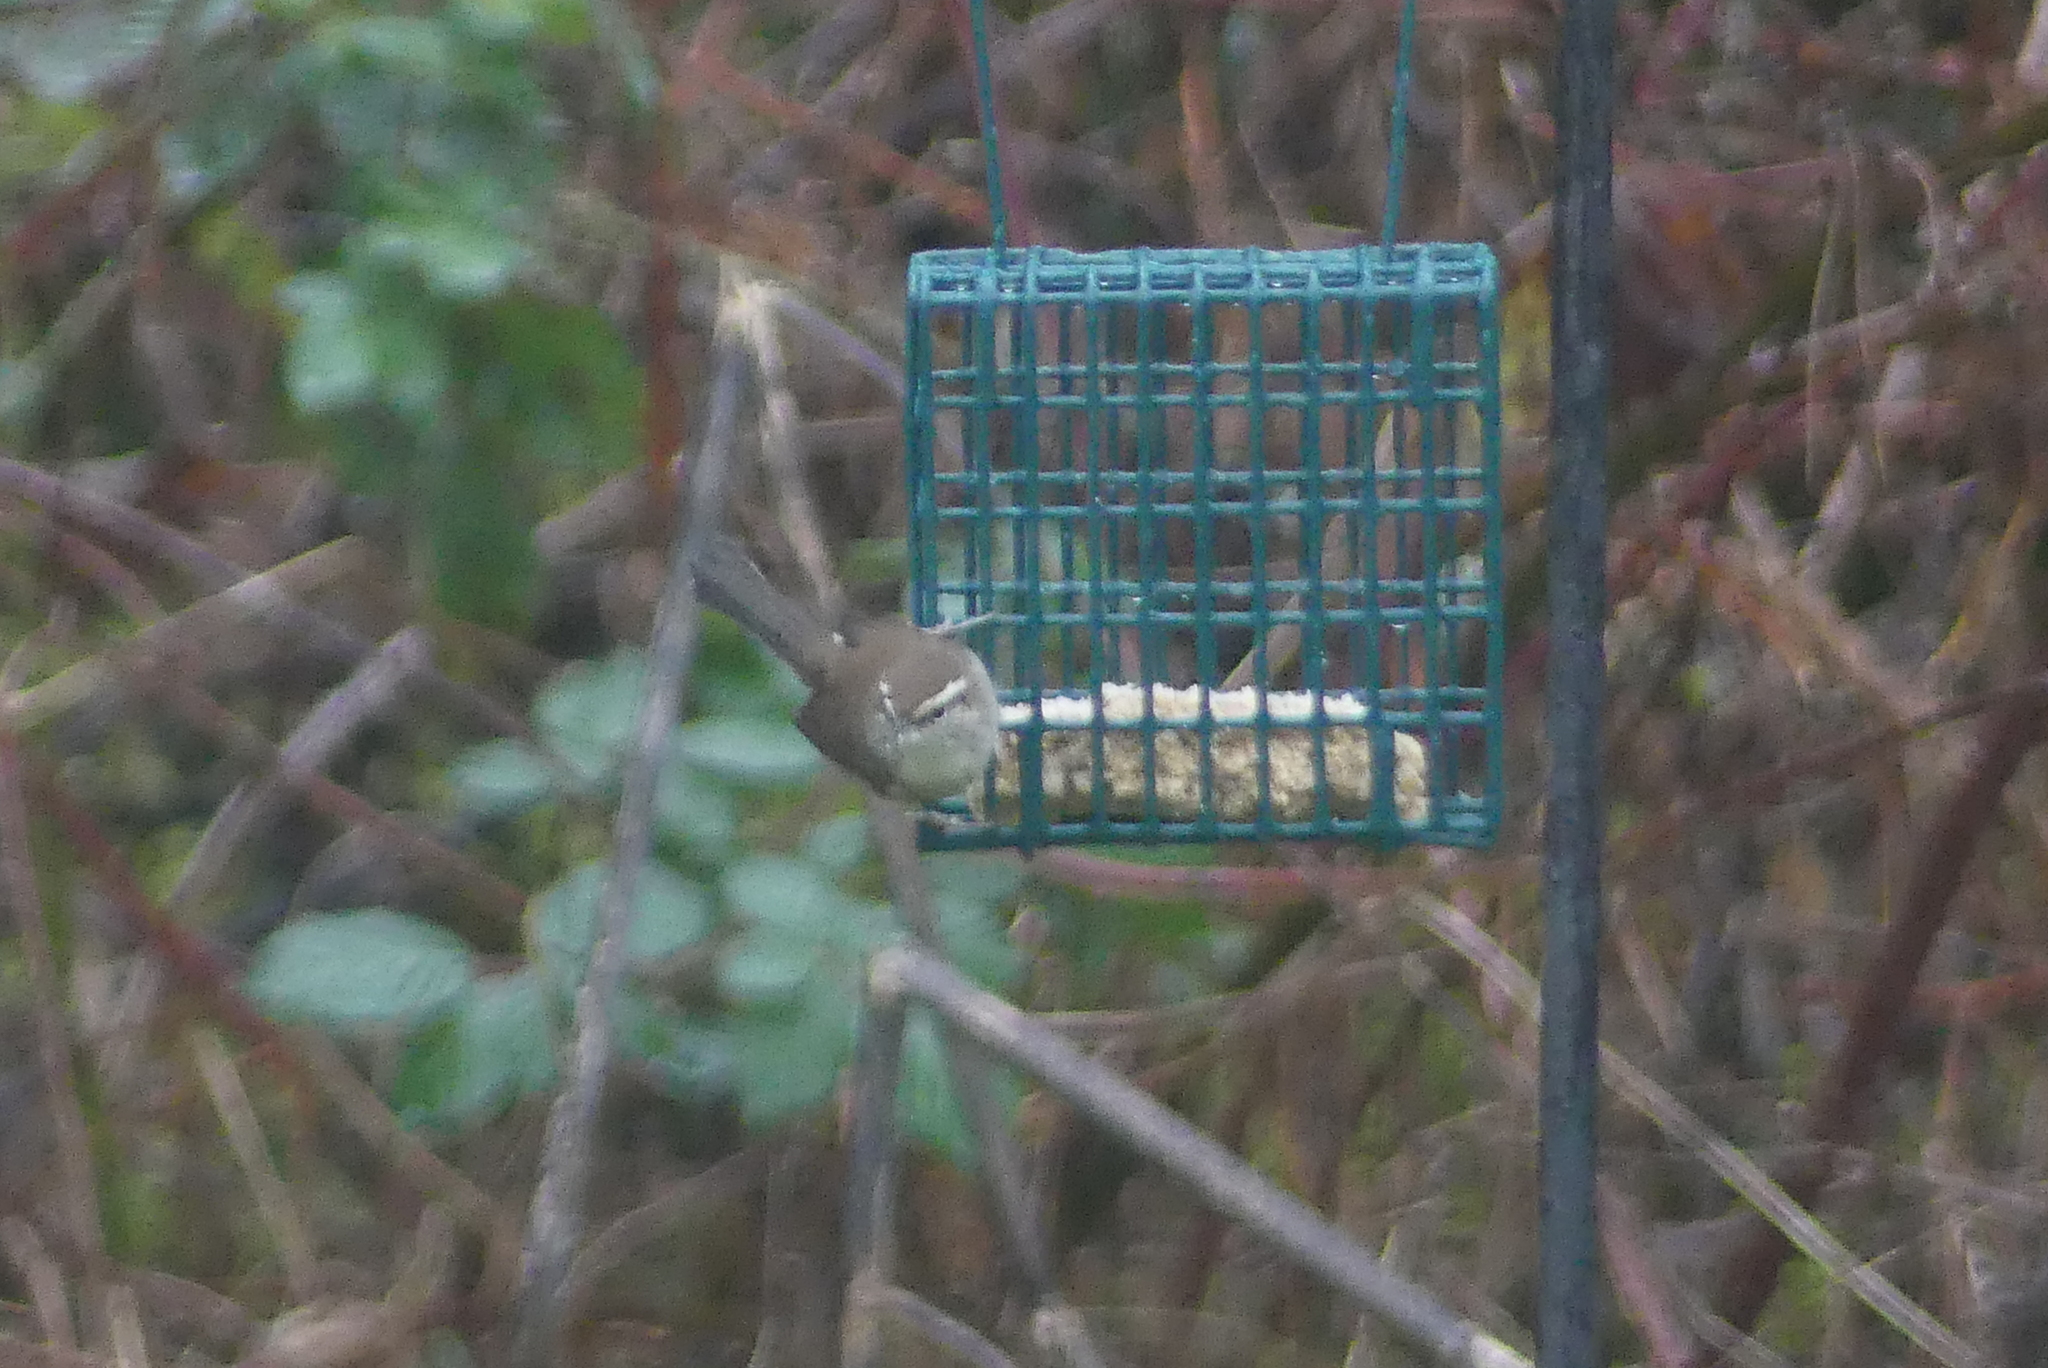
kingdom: Animalia
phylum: Chordata
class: Aves
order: Passeriformes
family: Troglodytidae
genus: Thryomanes
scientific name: Thryomanes bewickii
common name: Bewick's wren
